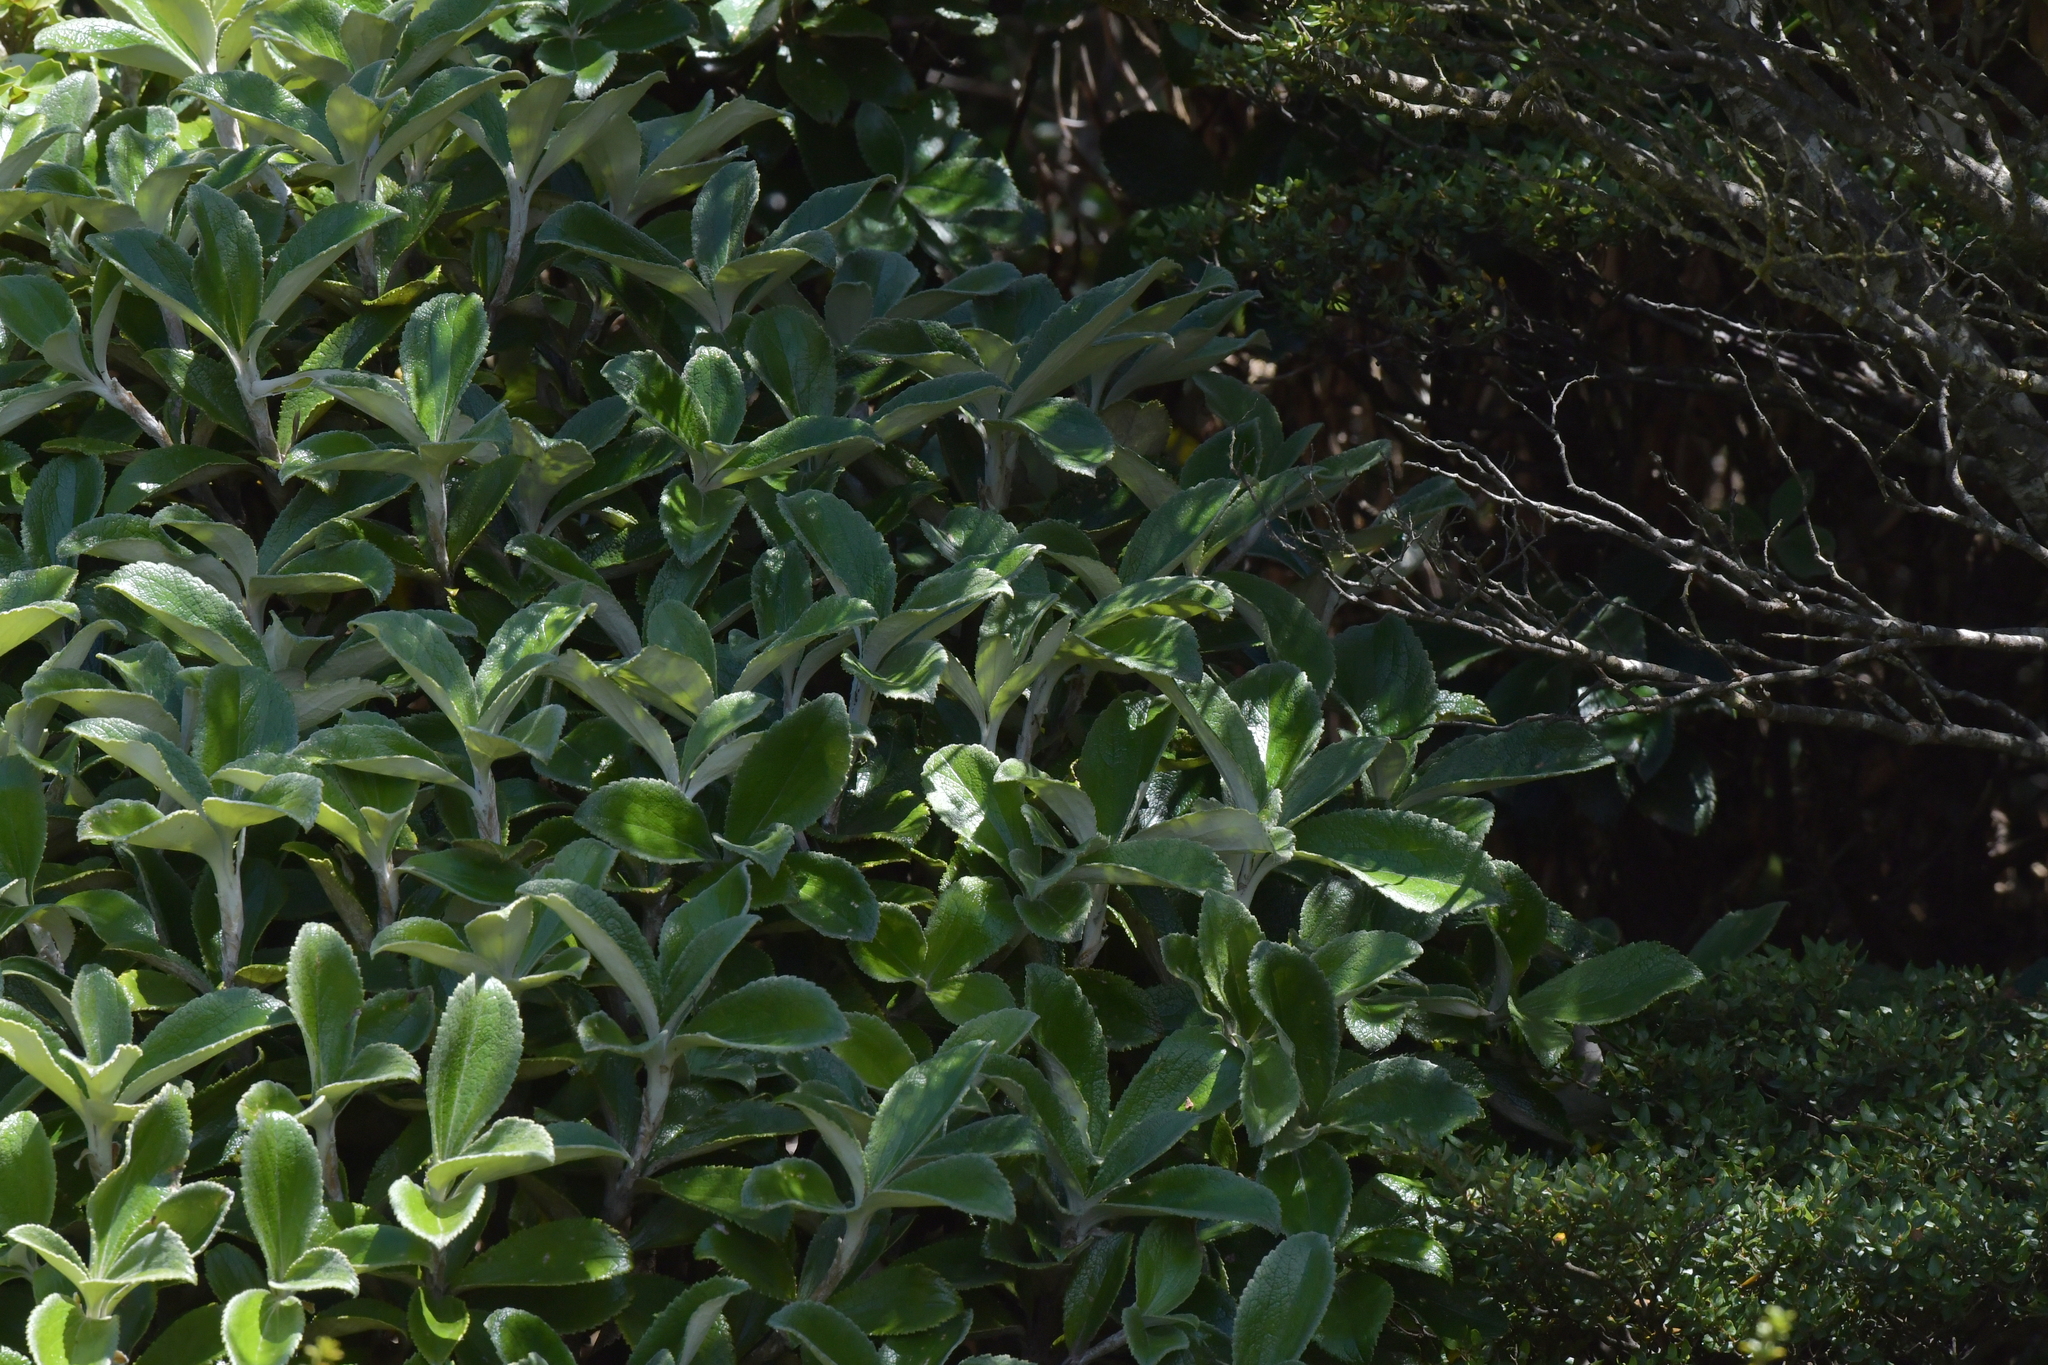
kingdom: Plantae
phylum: Tracheophyta
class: Magnoliopsida
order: Asterales
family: Asteraceae
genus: Macrolearia
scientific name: Macrolearia colensoi
